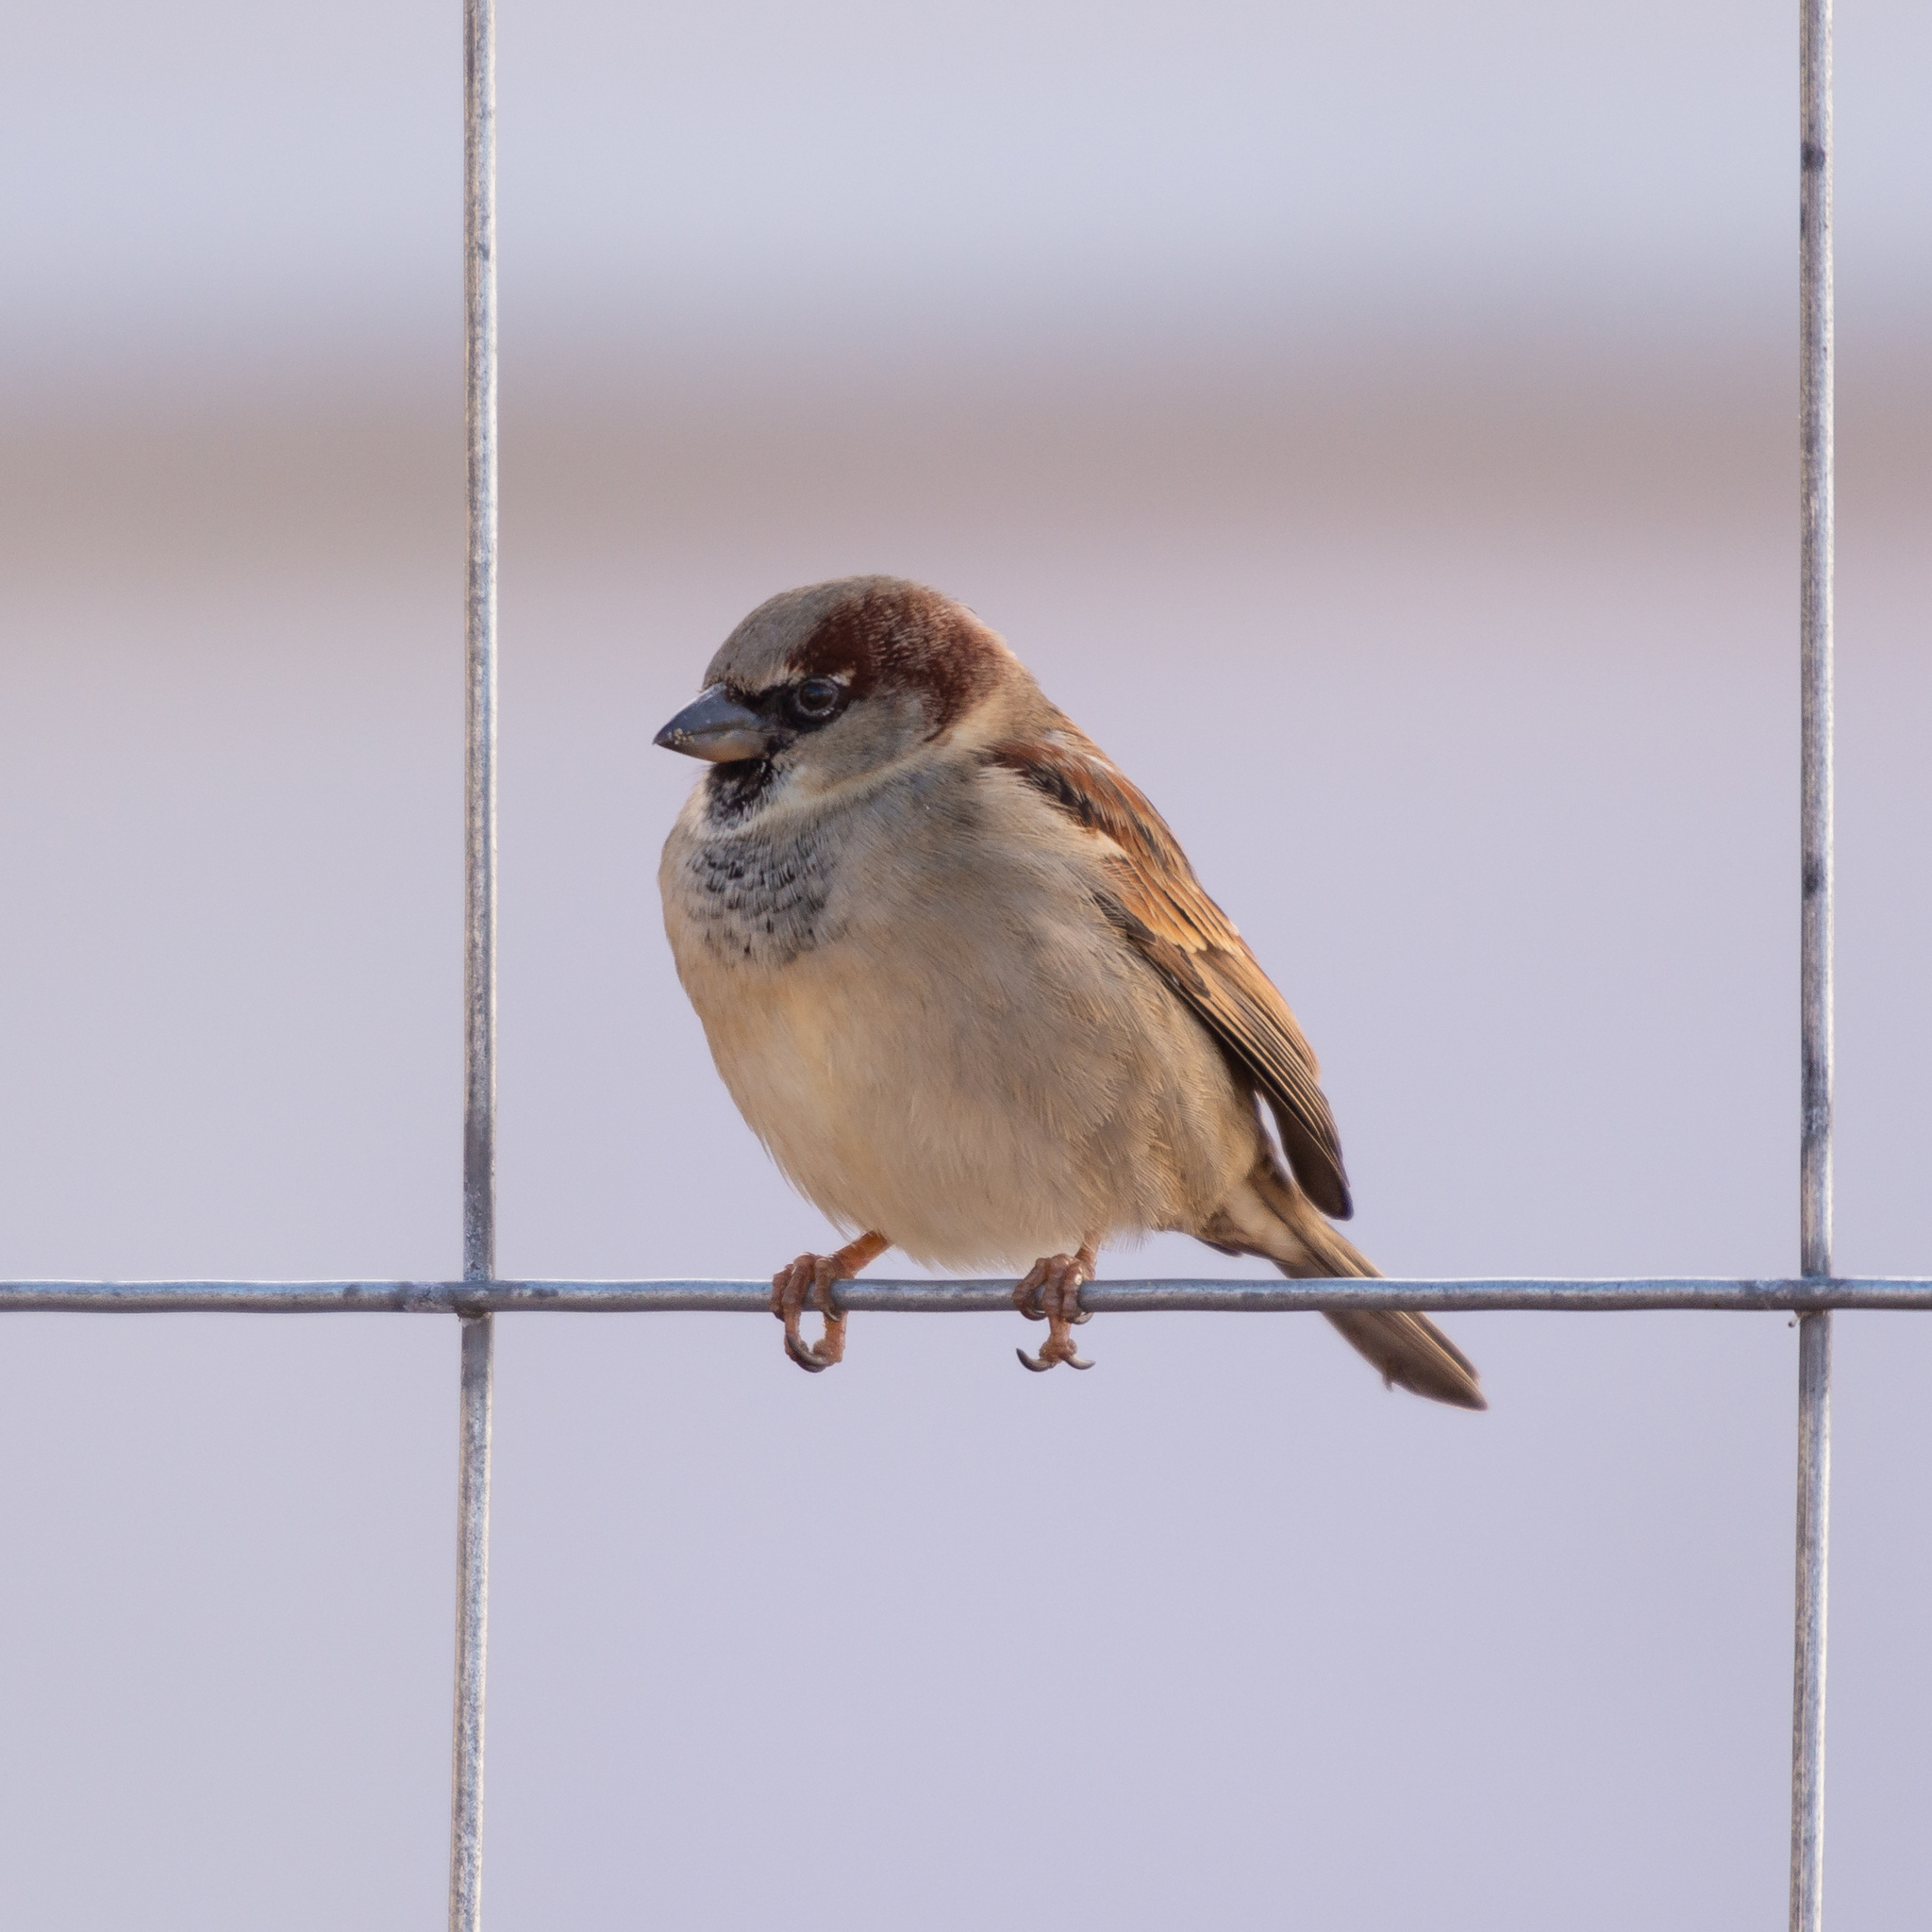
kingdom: Animalia
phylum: Chordata
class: Aves
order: Passeriformes
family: Passeridae
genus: Passer
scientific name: Passer domesticus
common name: House sparrow
